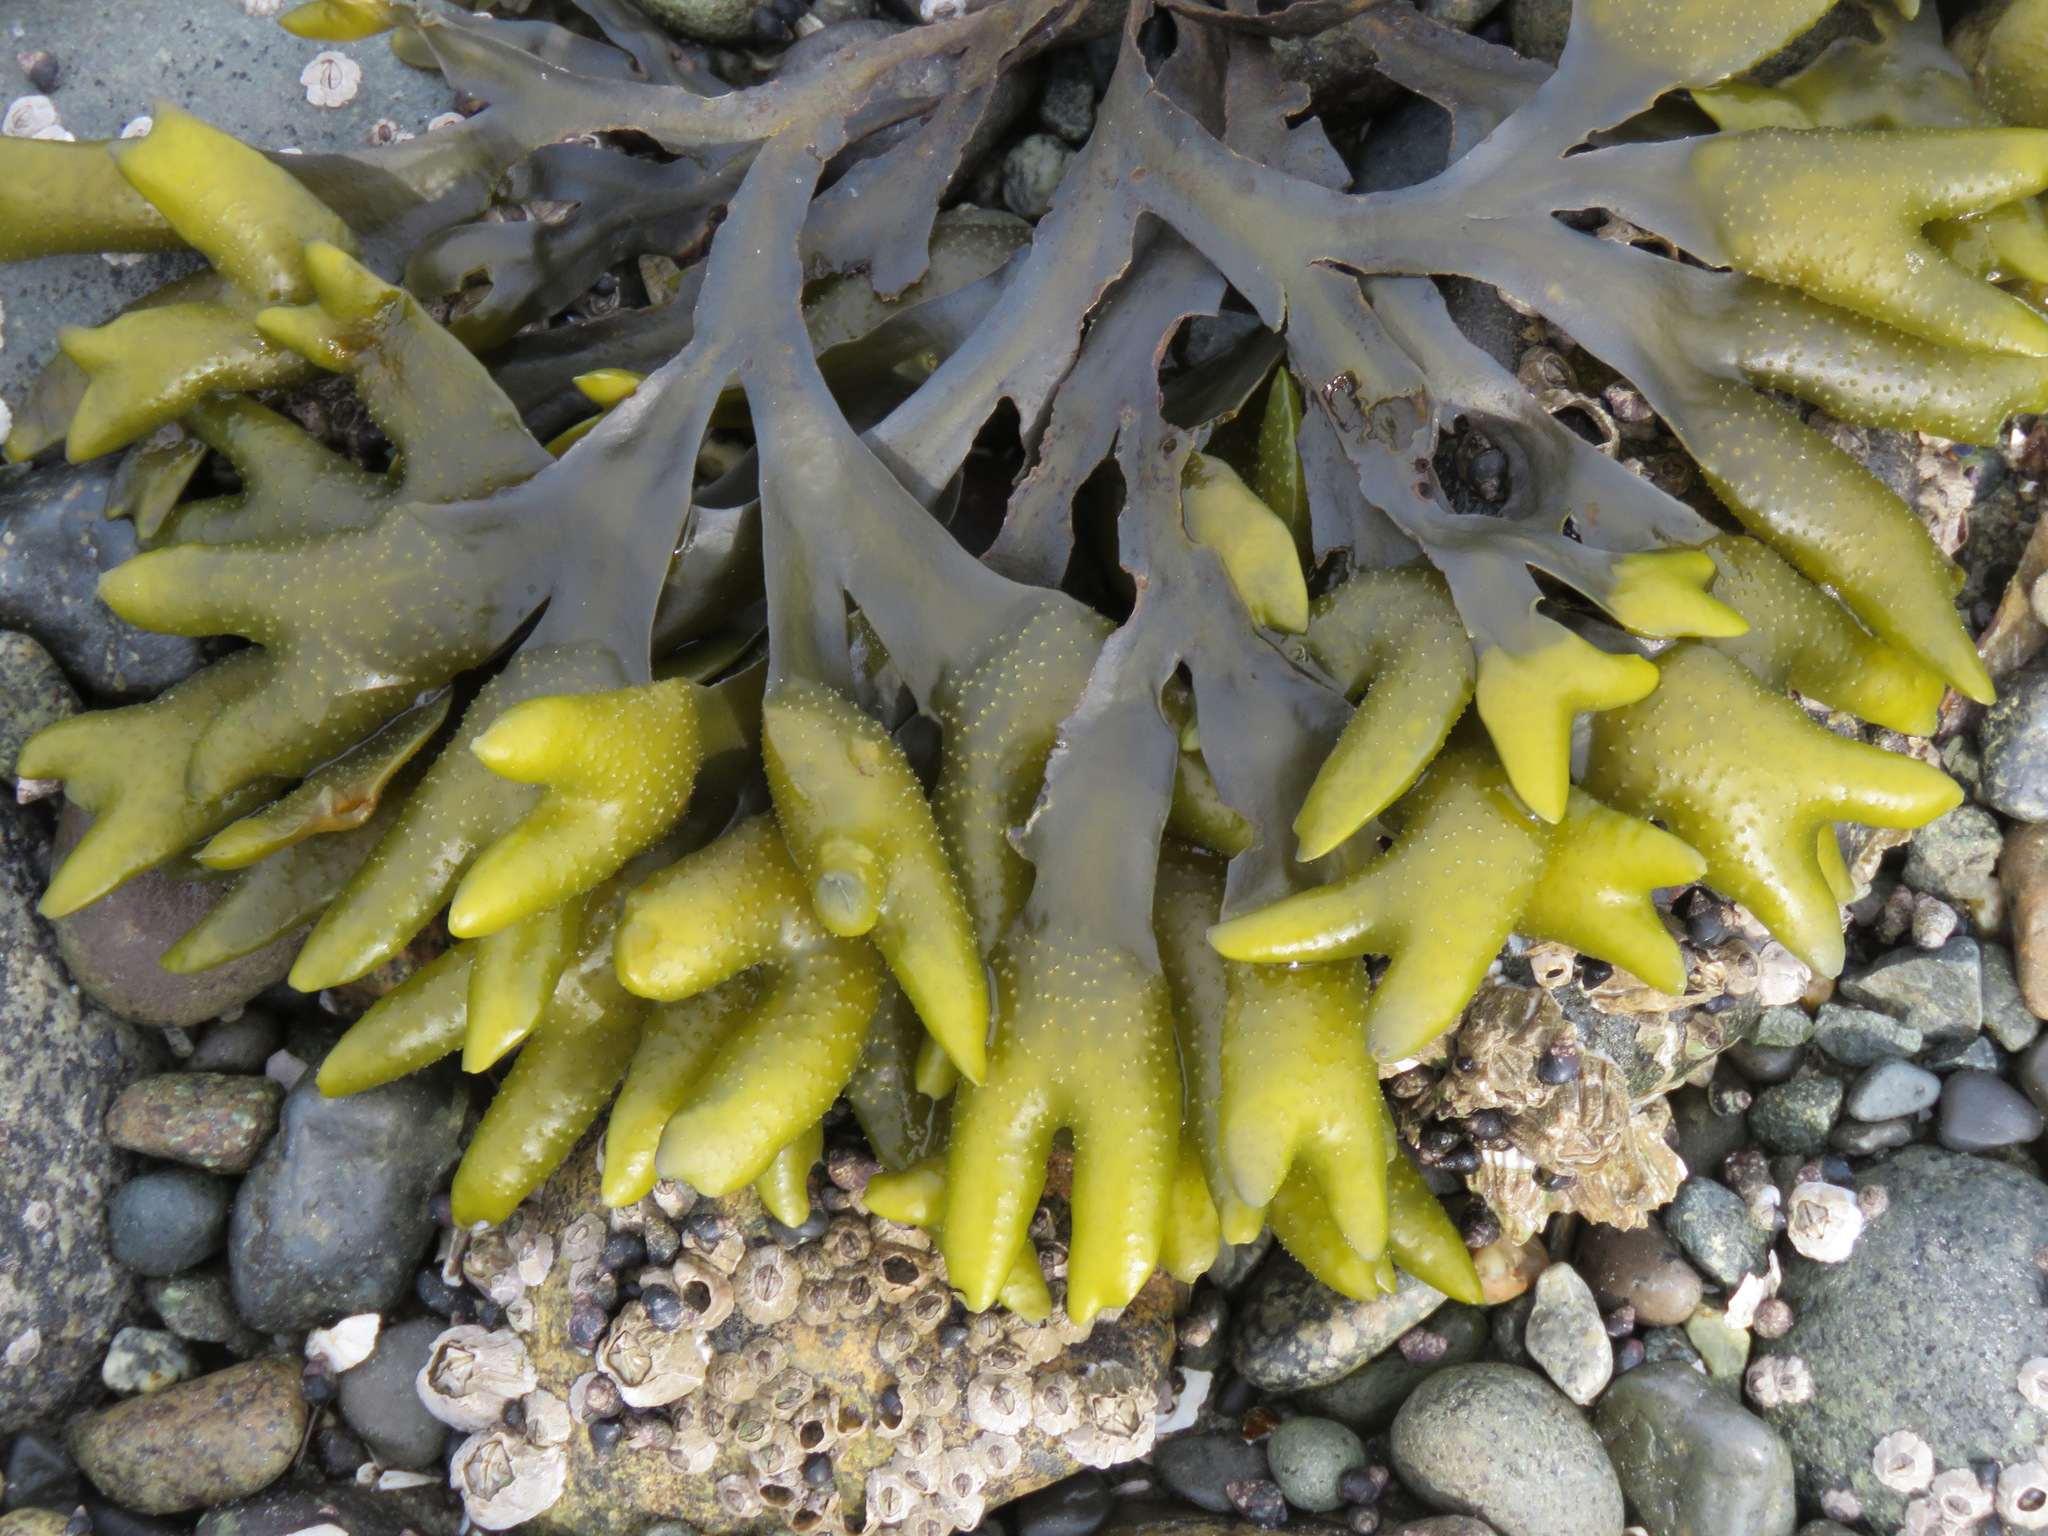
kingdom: Chromista
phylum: Ochrophyta
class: Phaeophyceae
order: Fucales
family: Fucaceae
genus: Fucus
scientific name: Fucus distichus
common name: Rockweed
